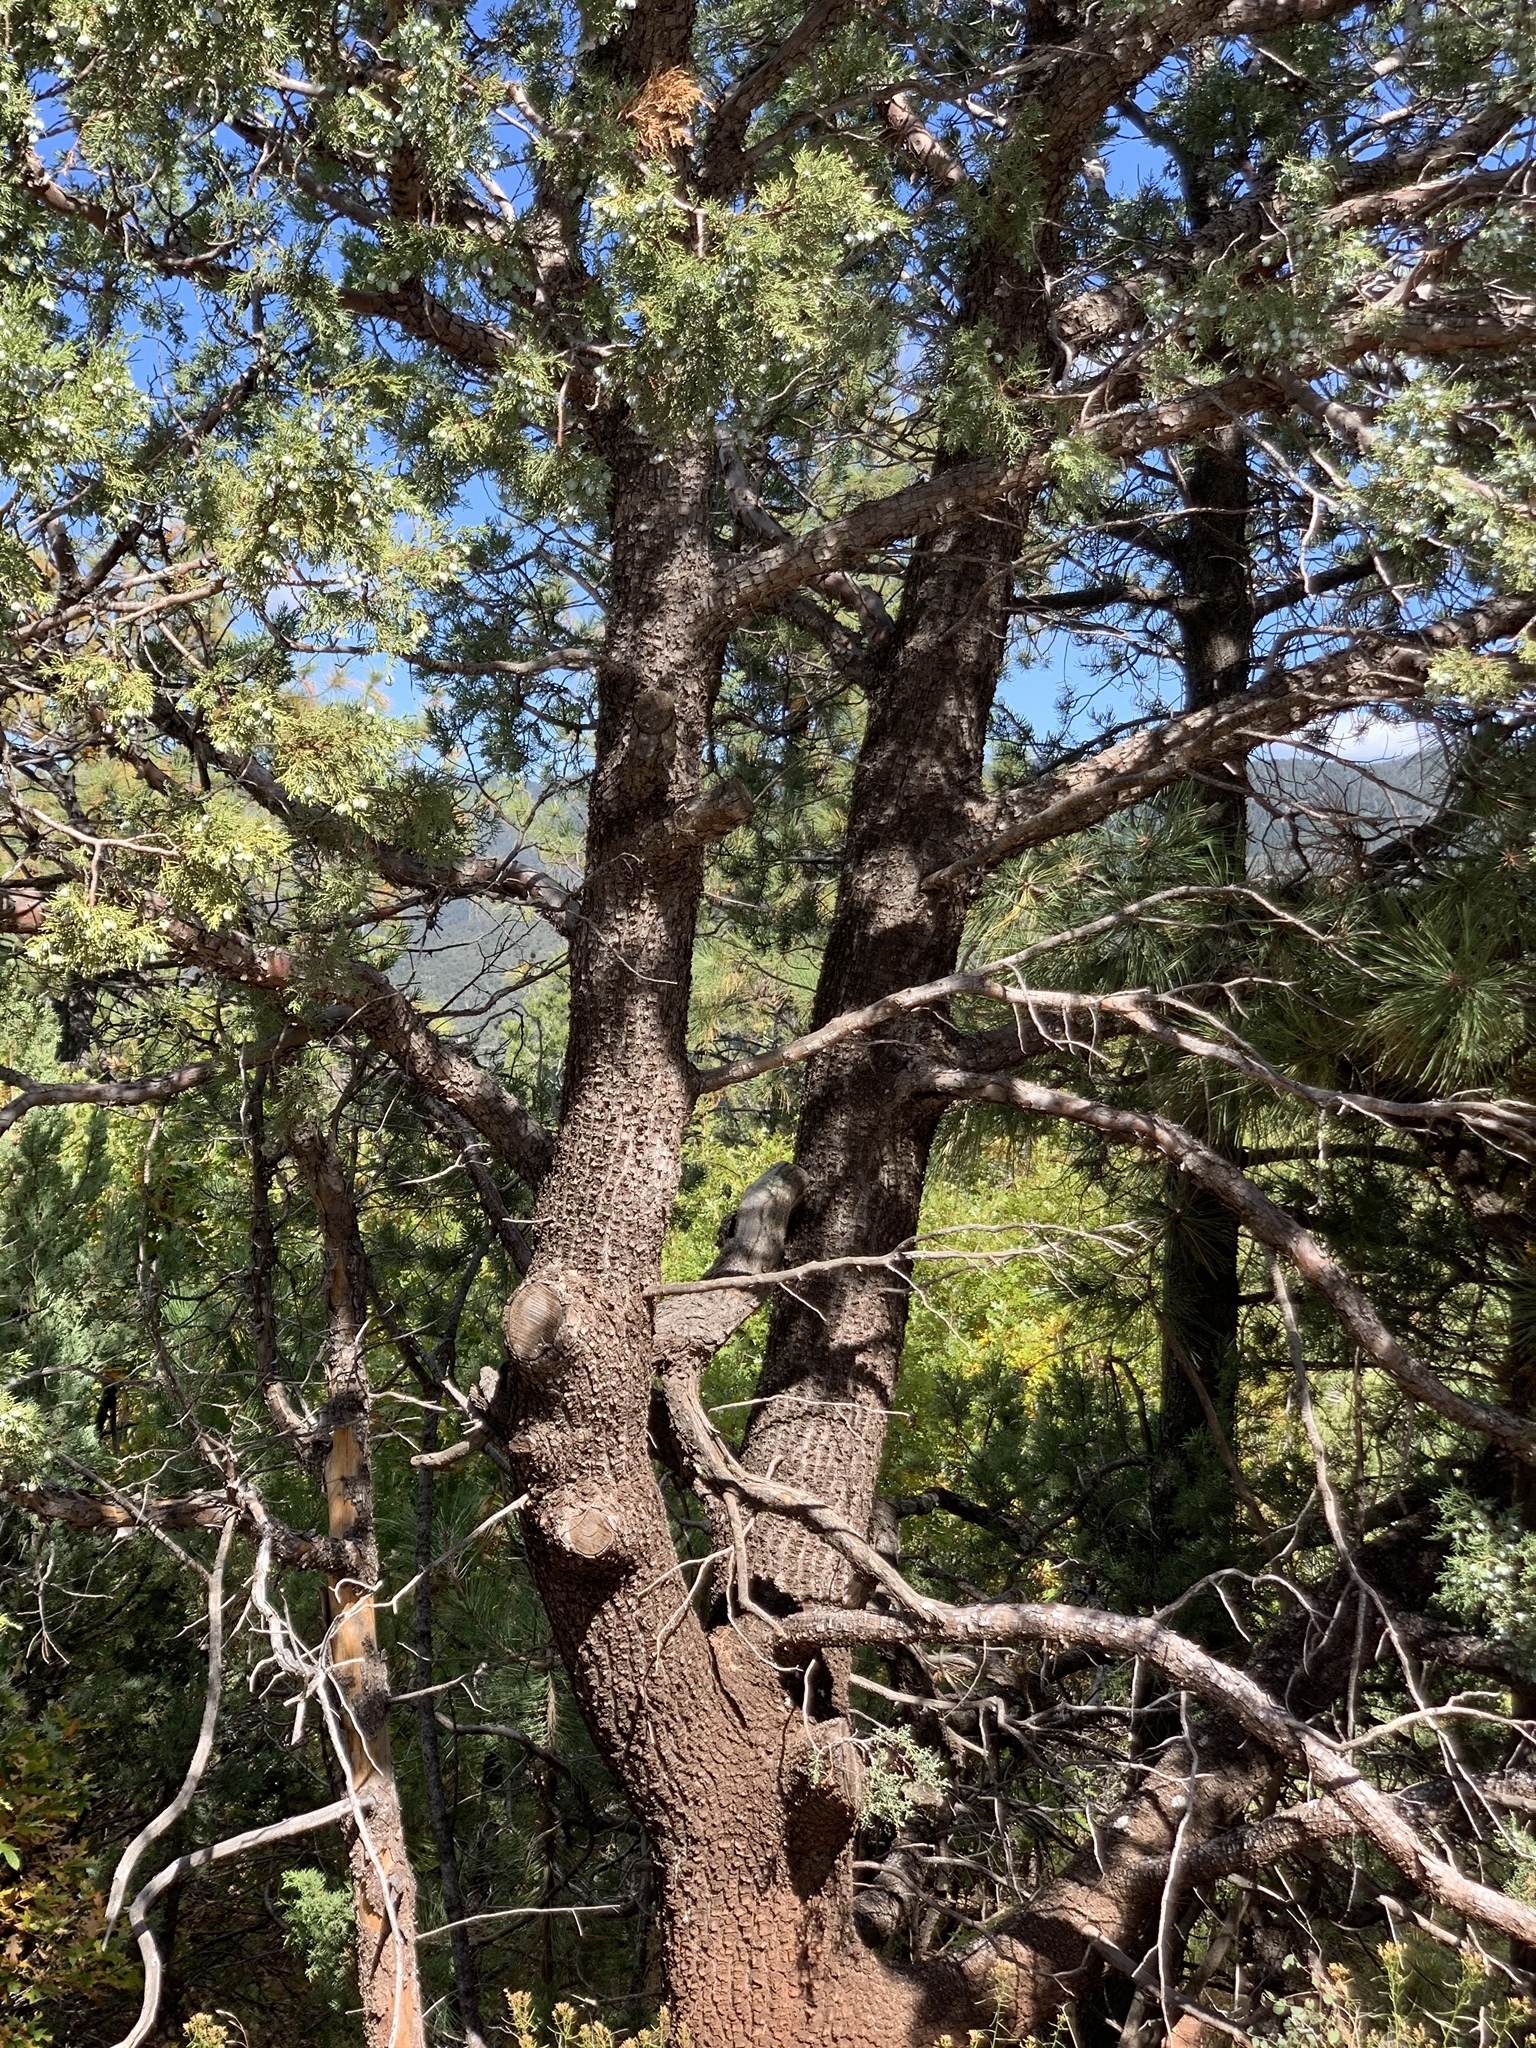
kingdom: Plantae
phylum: Tracheophyta
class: Pinopsida
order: Pinales
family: Cupressaceae
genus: Juniperus
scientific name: Juniperus deppeana
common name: Alligator juniper
